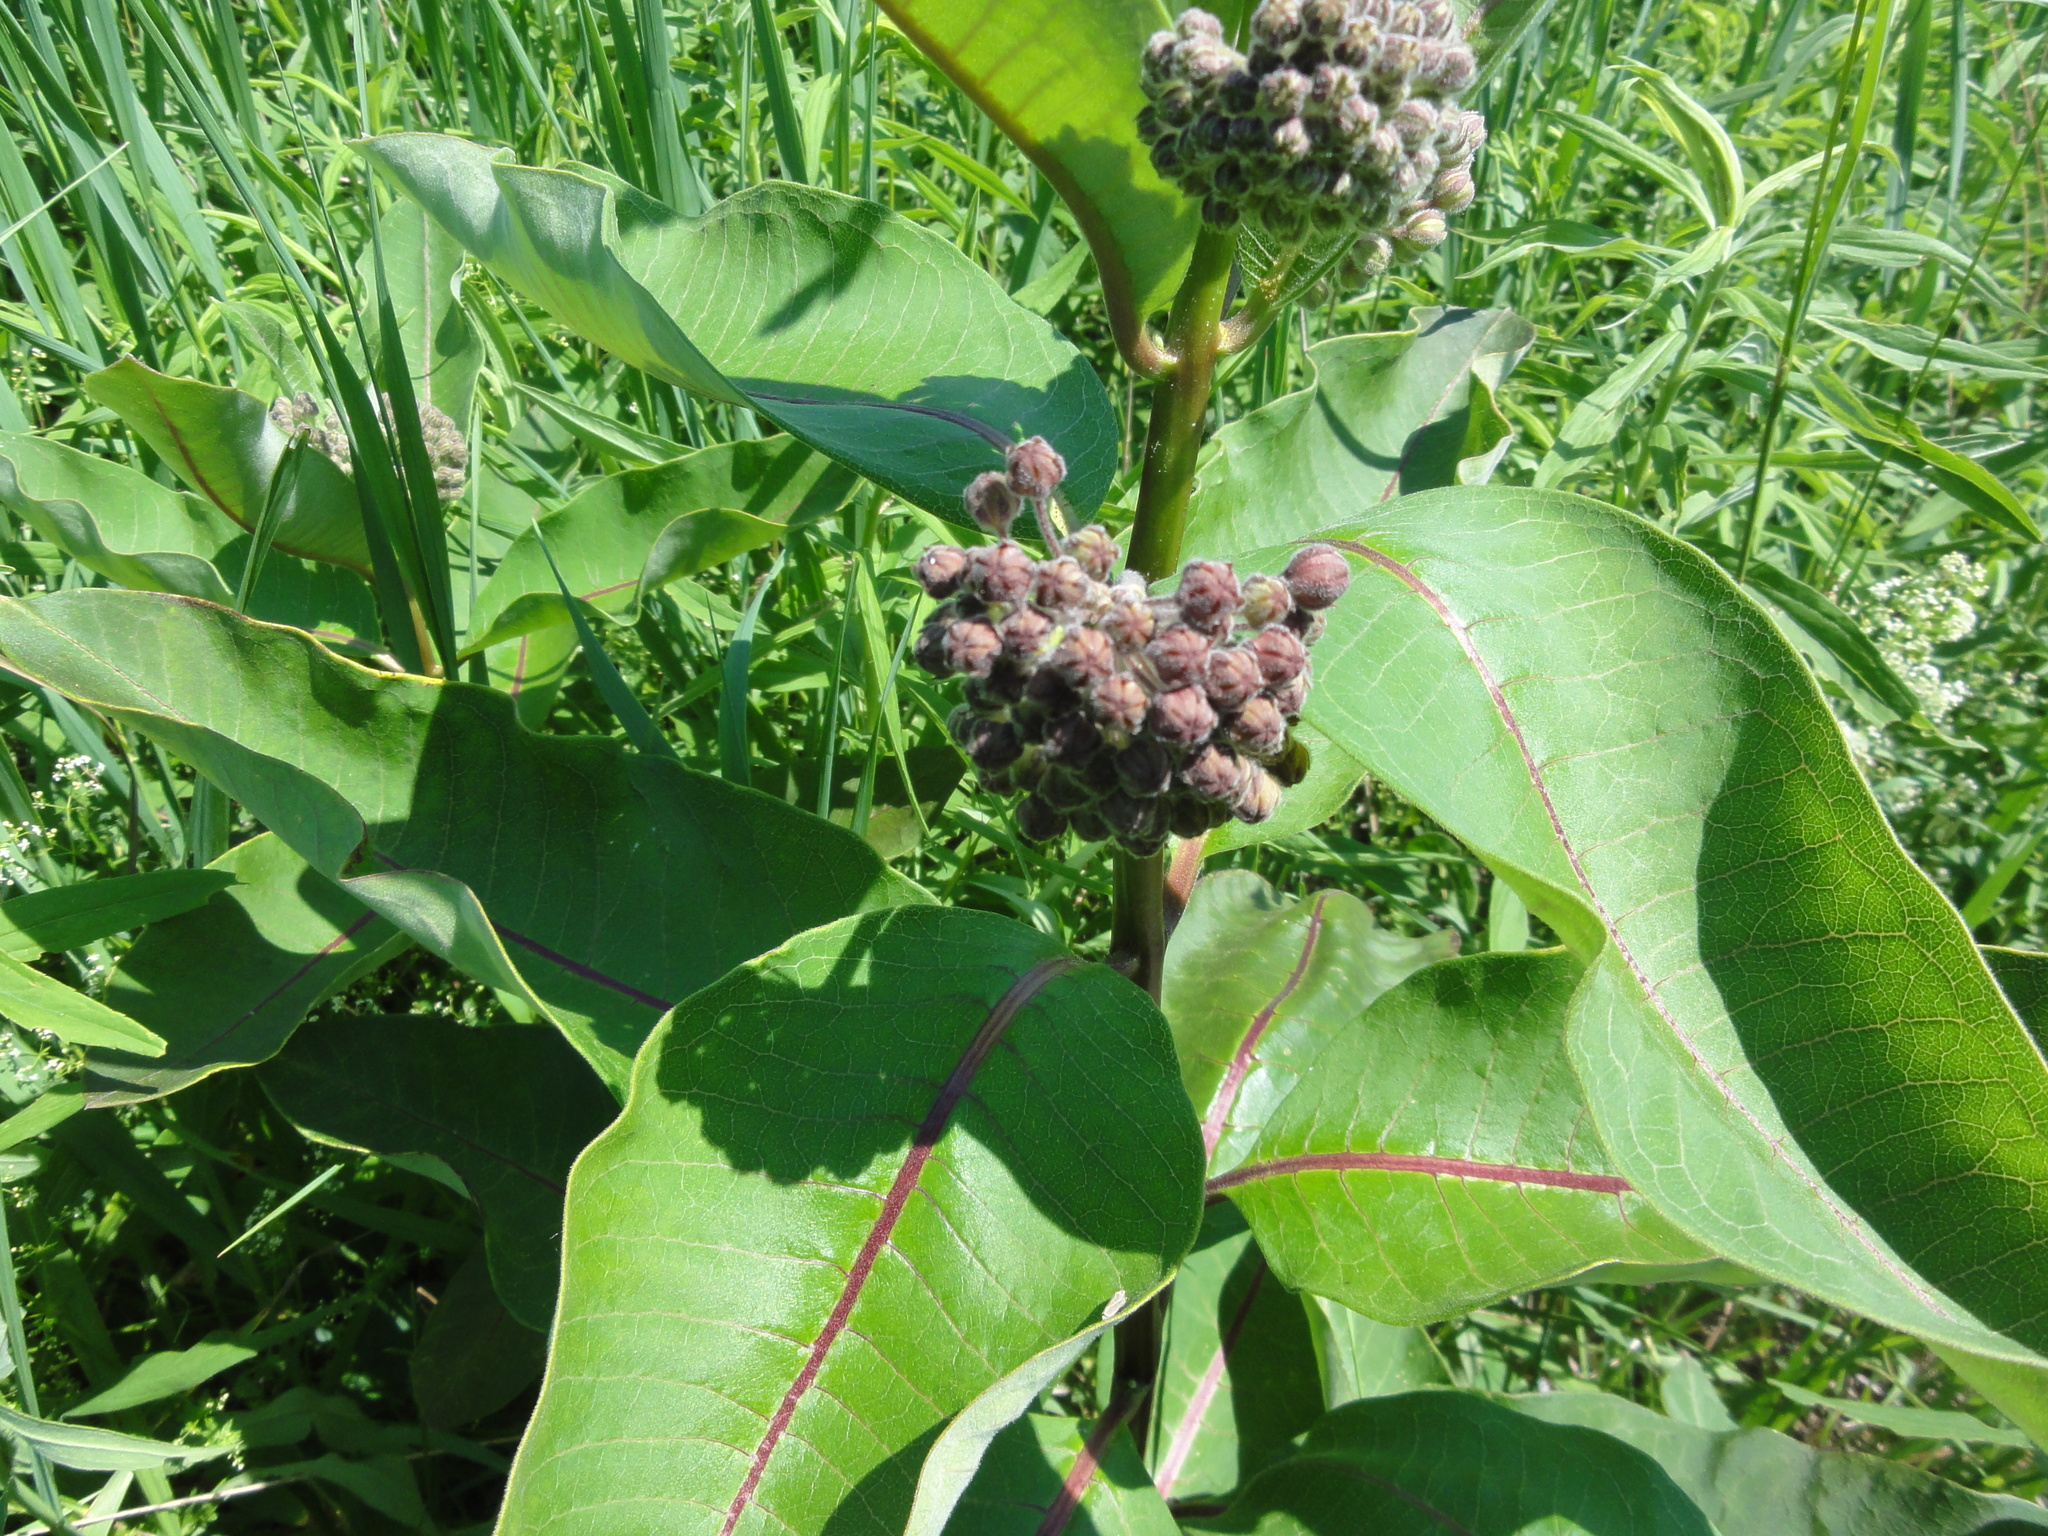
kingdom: Plantae
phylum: Tracheophyta
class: Magnoliopsida
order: Gentianales
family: Apocynaceae
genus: Asclepias
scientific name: Asclepias syriaca
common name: Common milkweed
